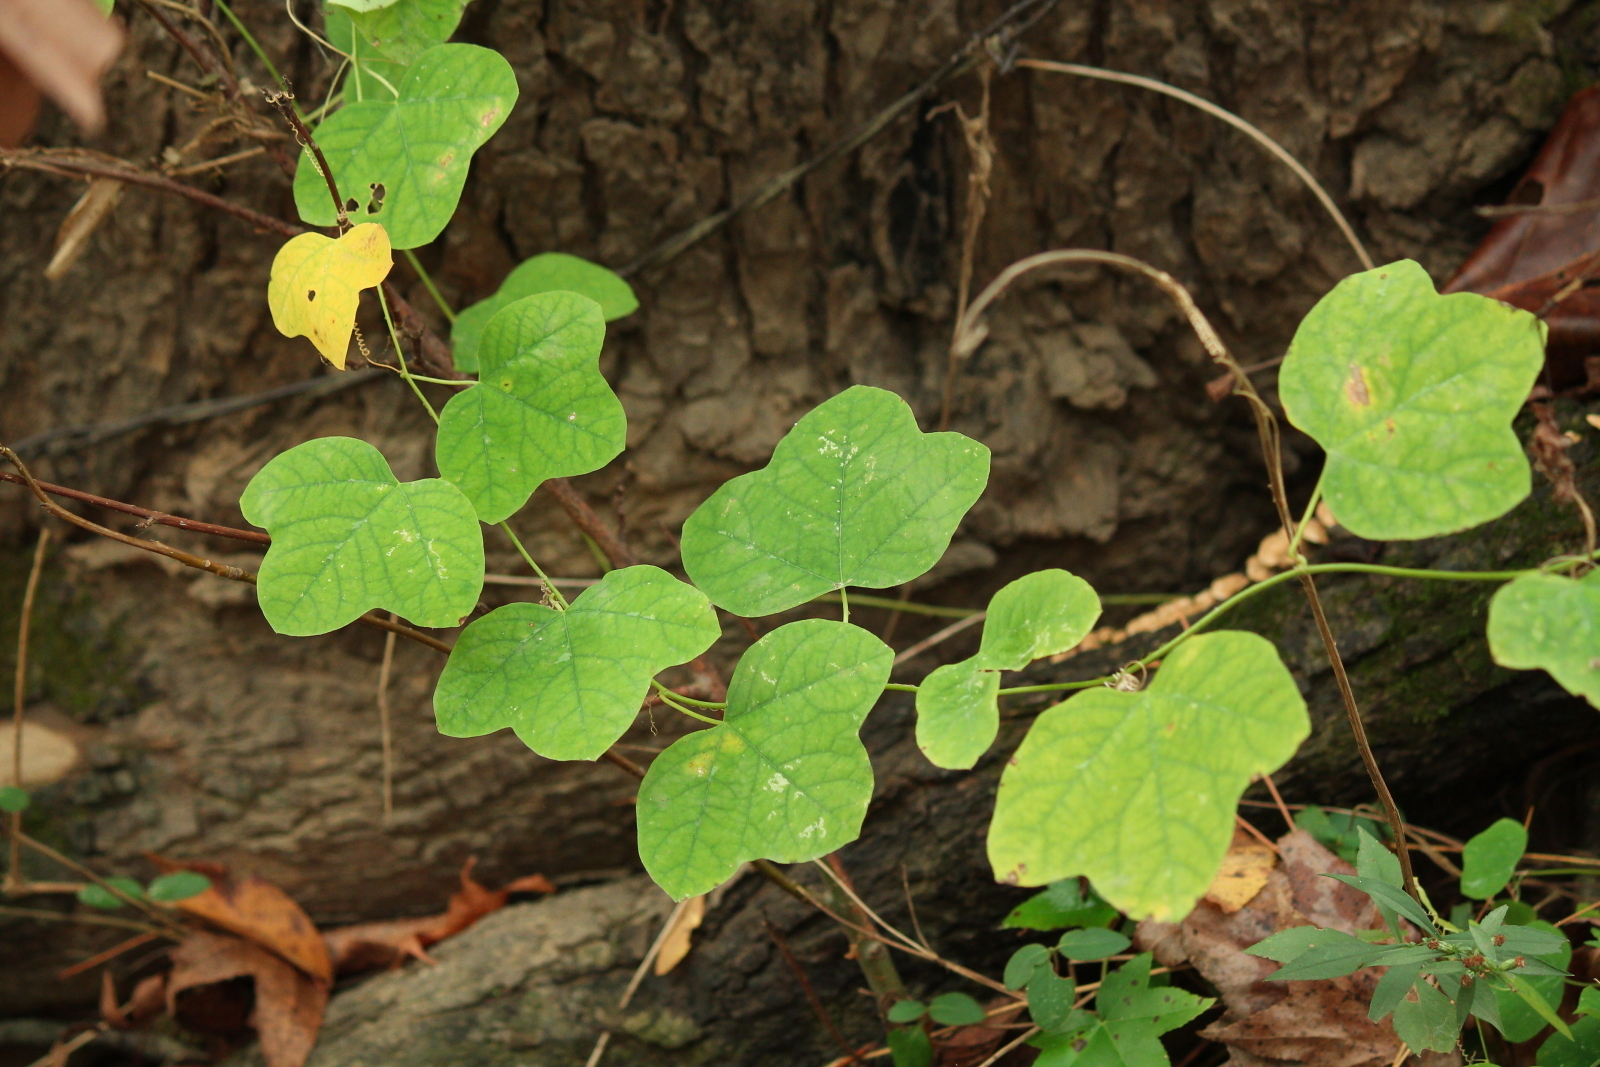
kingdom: Plantae
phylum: Tracheophyta
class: Magnoliopsida
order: Malpighiales
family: Passifloraceae
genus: Passiflora
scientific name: Passiflora lutea
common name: Yellow passionflower
